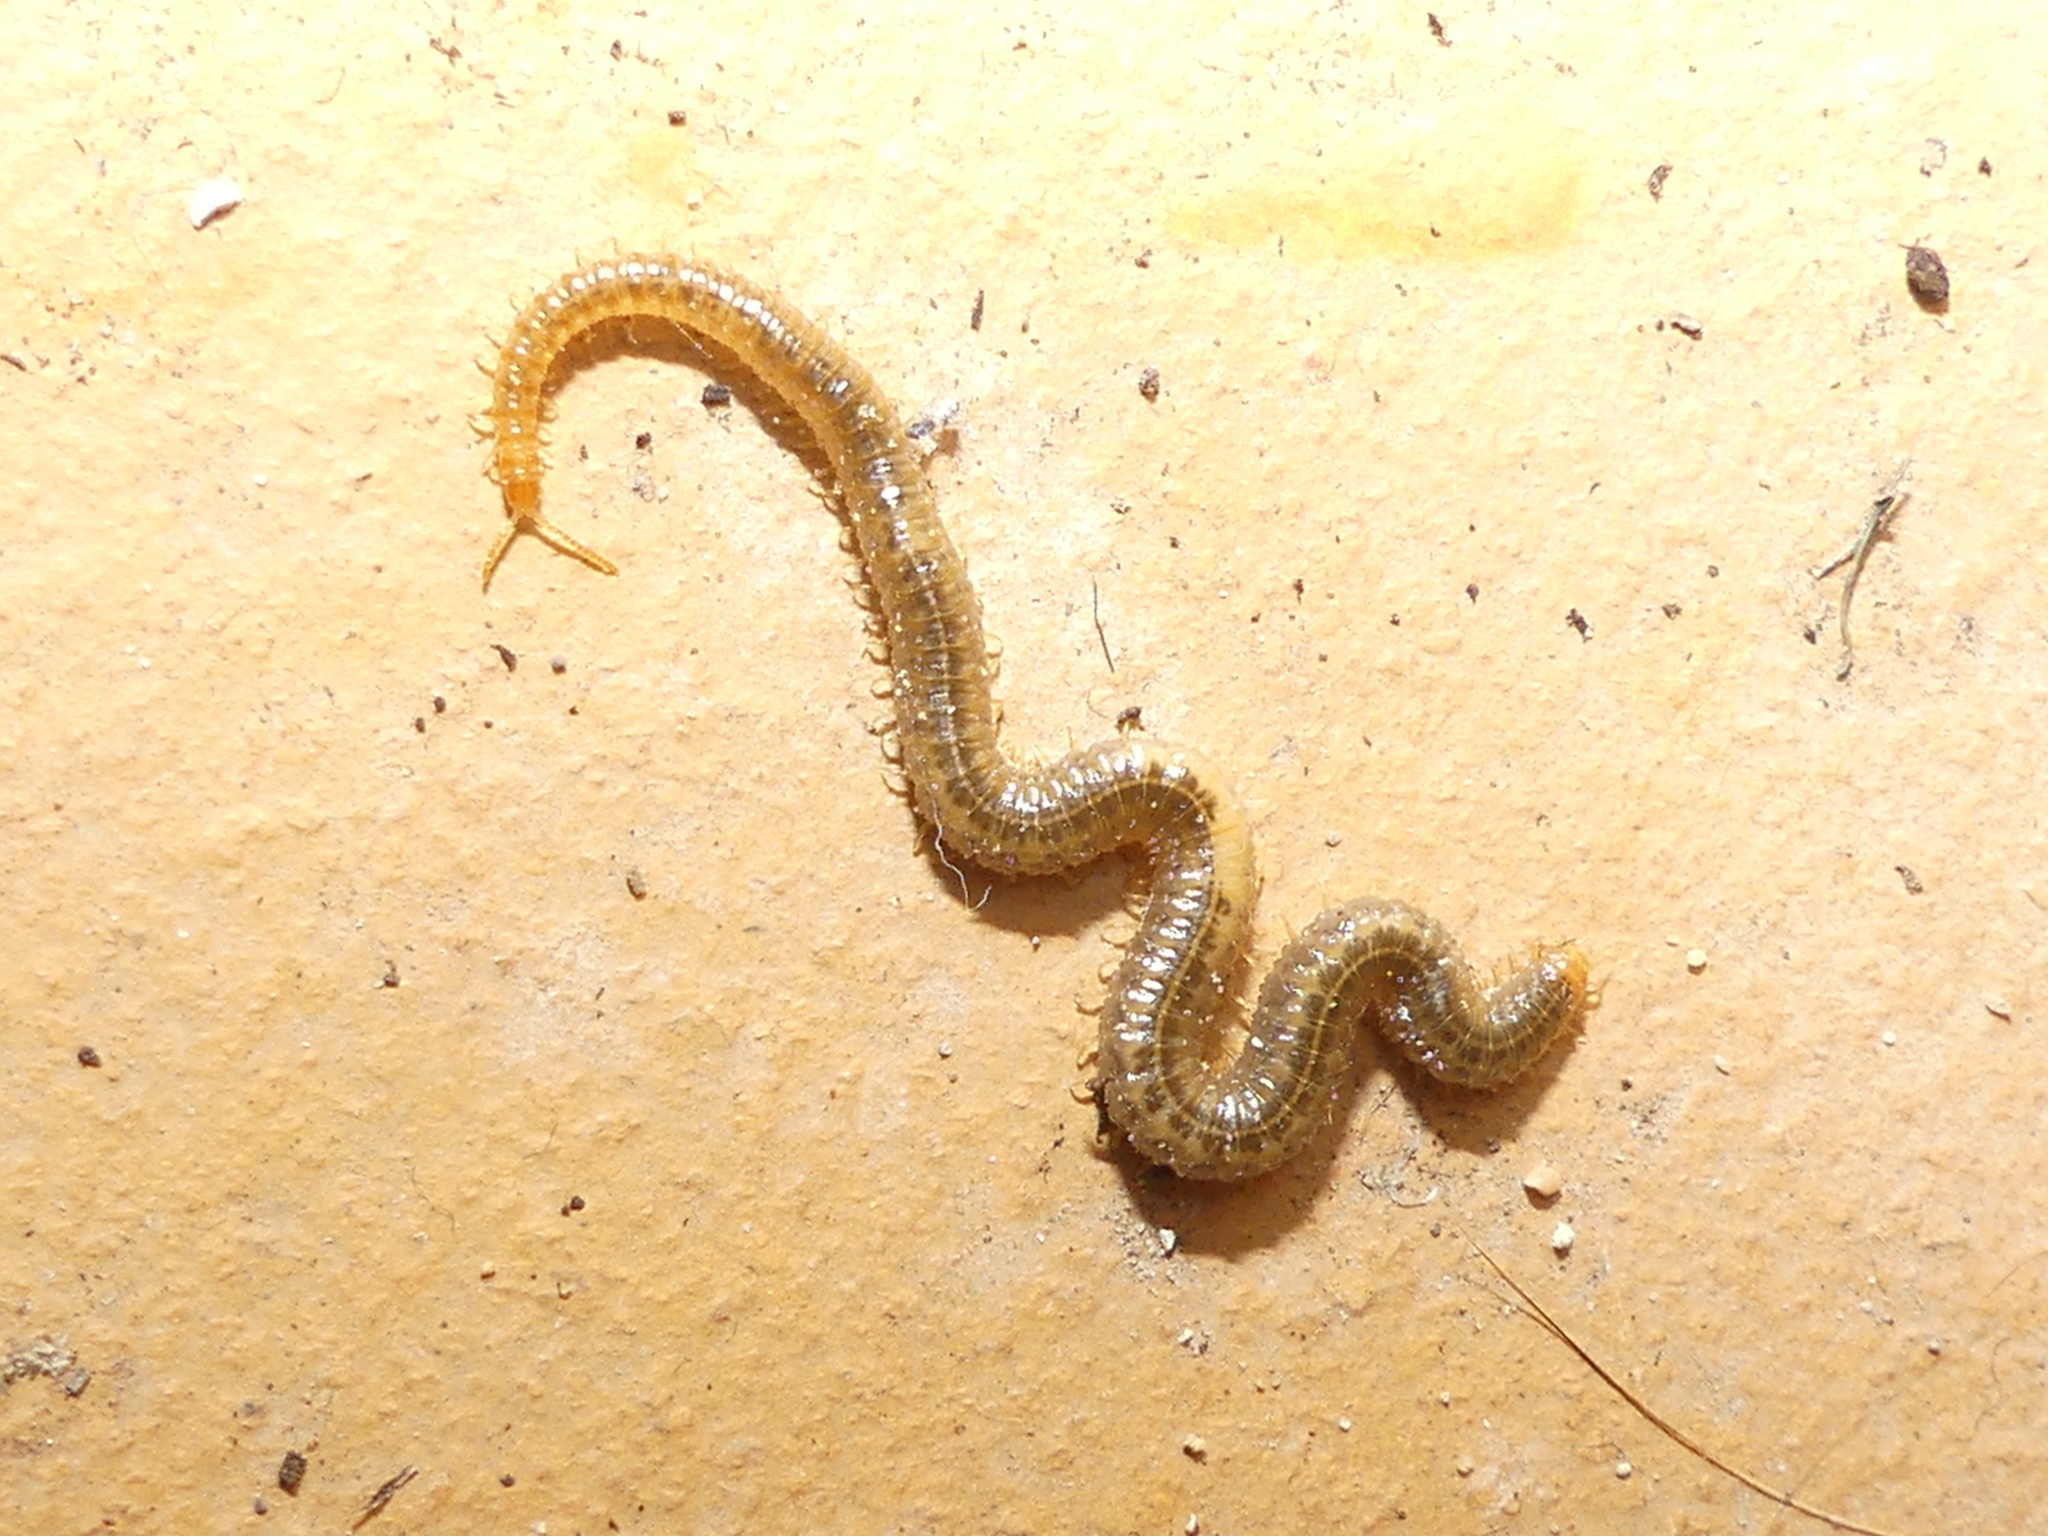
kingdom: Animalia
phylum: Arthropoda
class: Chilopoda
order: Geophilomorpha
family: Dignathodontidae
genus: Henia
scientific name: Henia vesuviana
